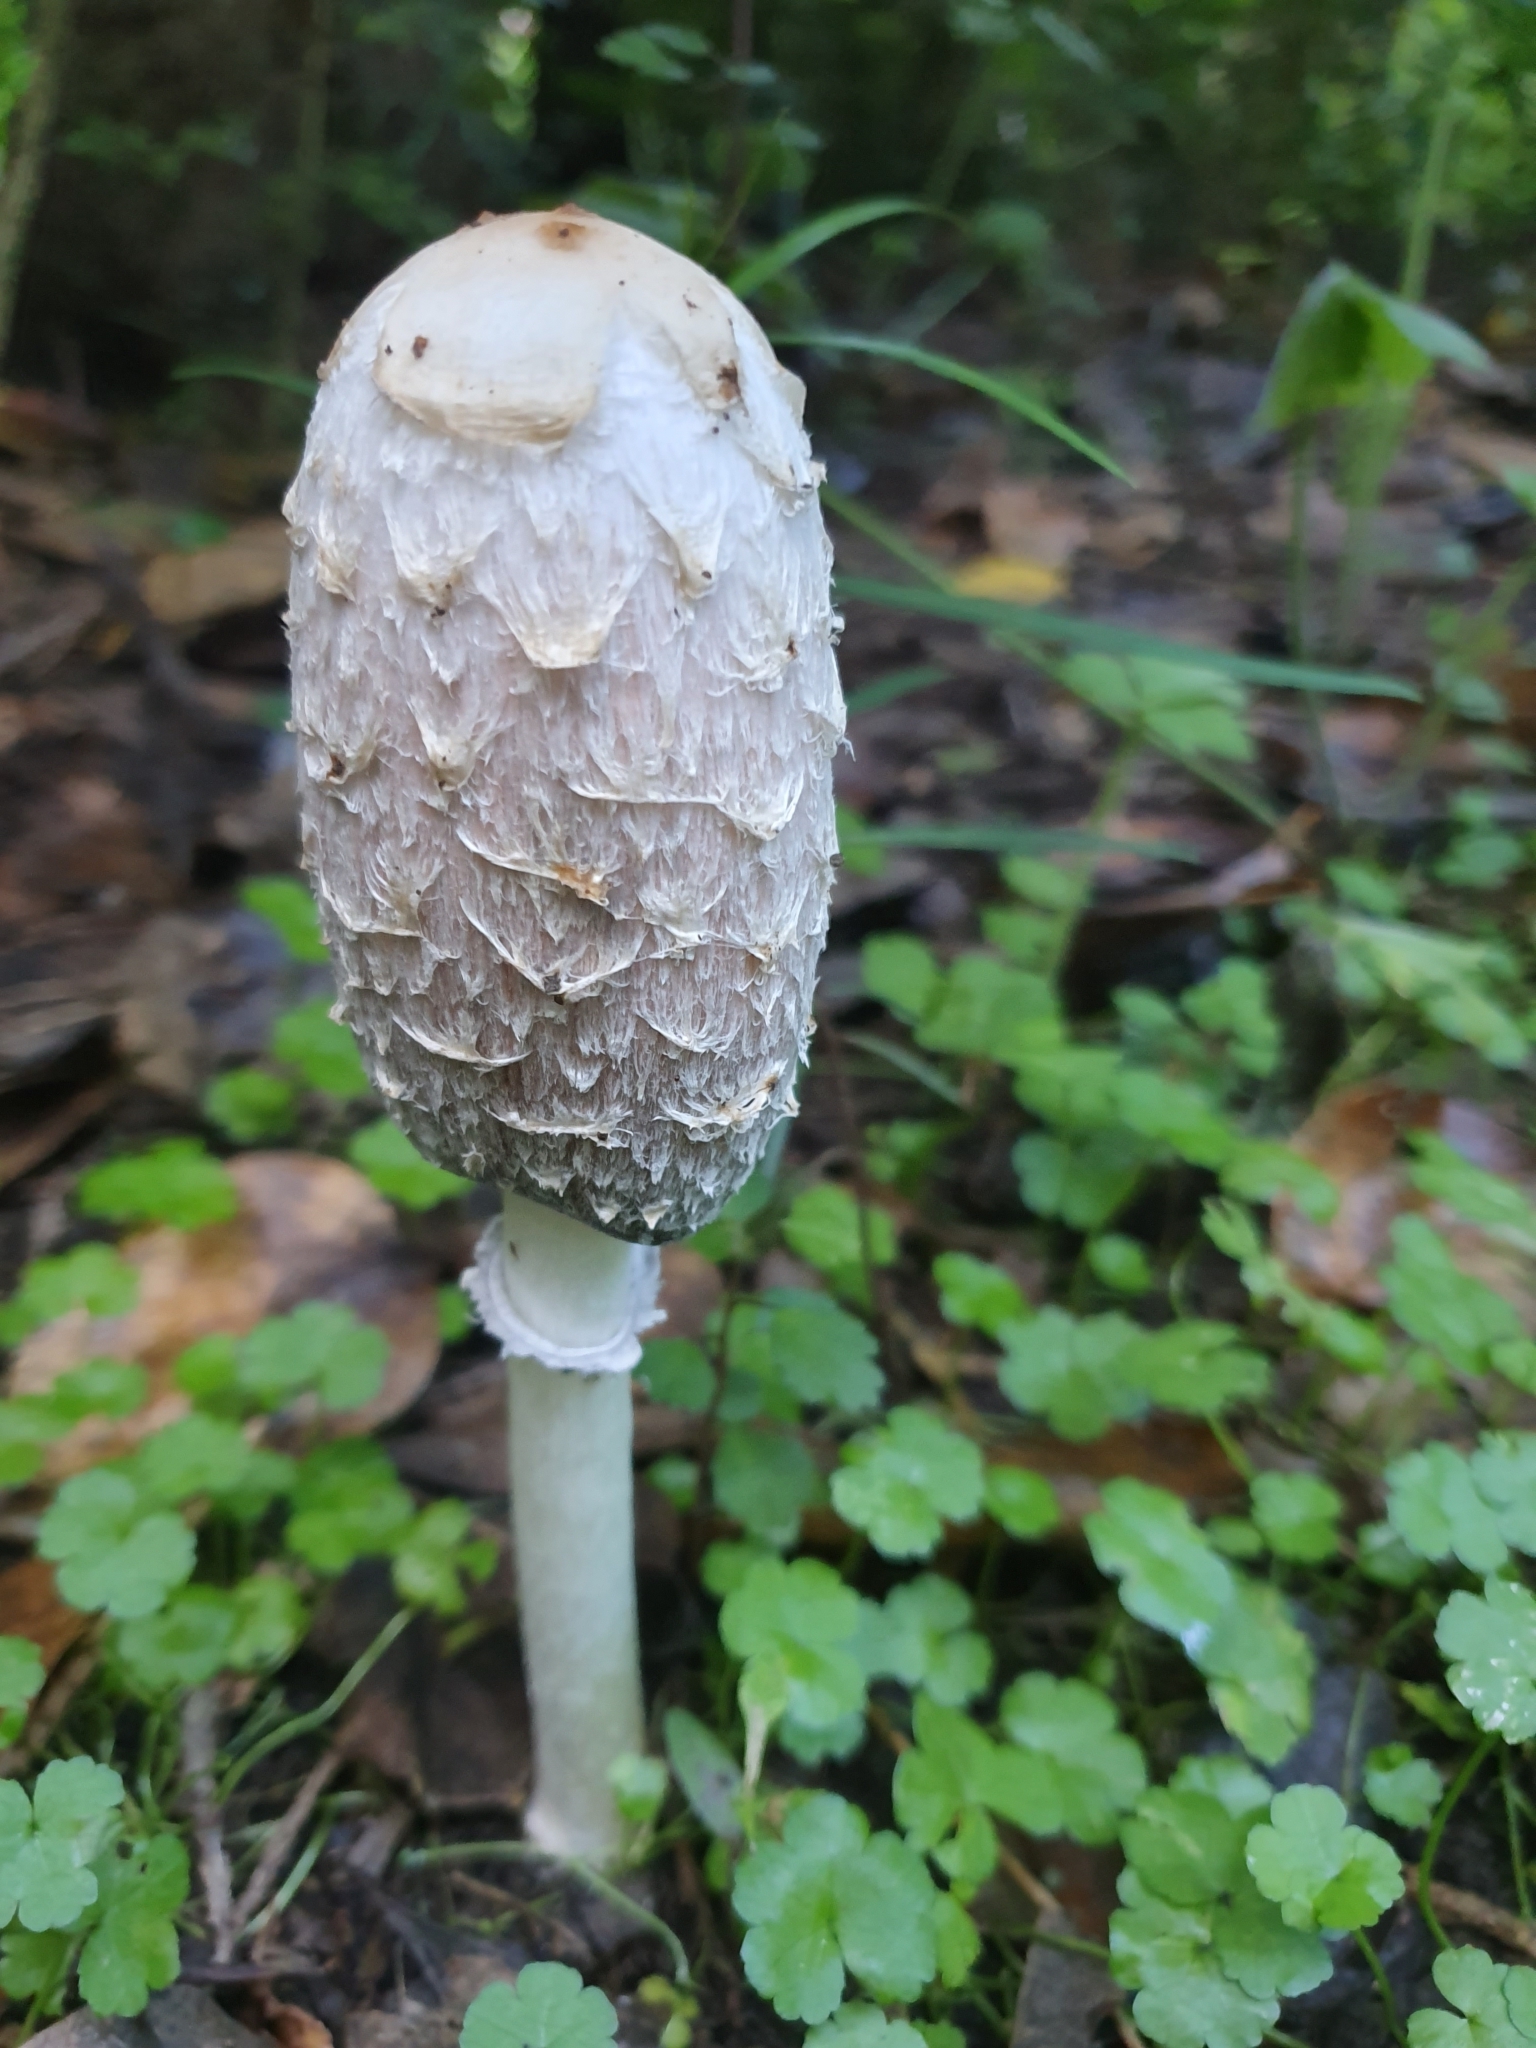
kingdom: Fungi
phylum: Basidiomycota
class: Agaricomycetes
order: Agaricales
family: Agaricaceae
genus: Coprinus
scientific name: Coprinus comatus
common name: Lawyer's wig
